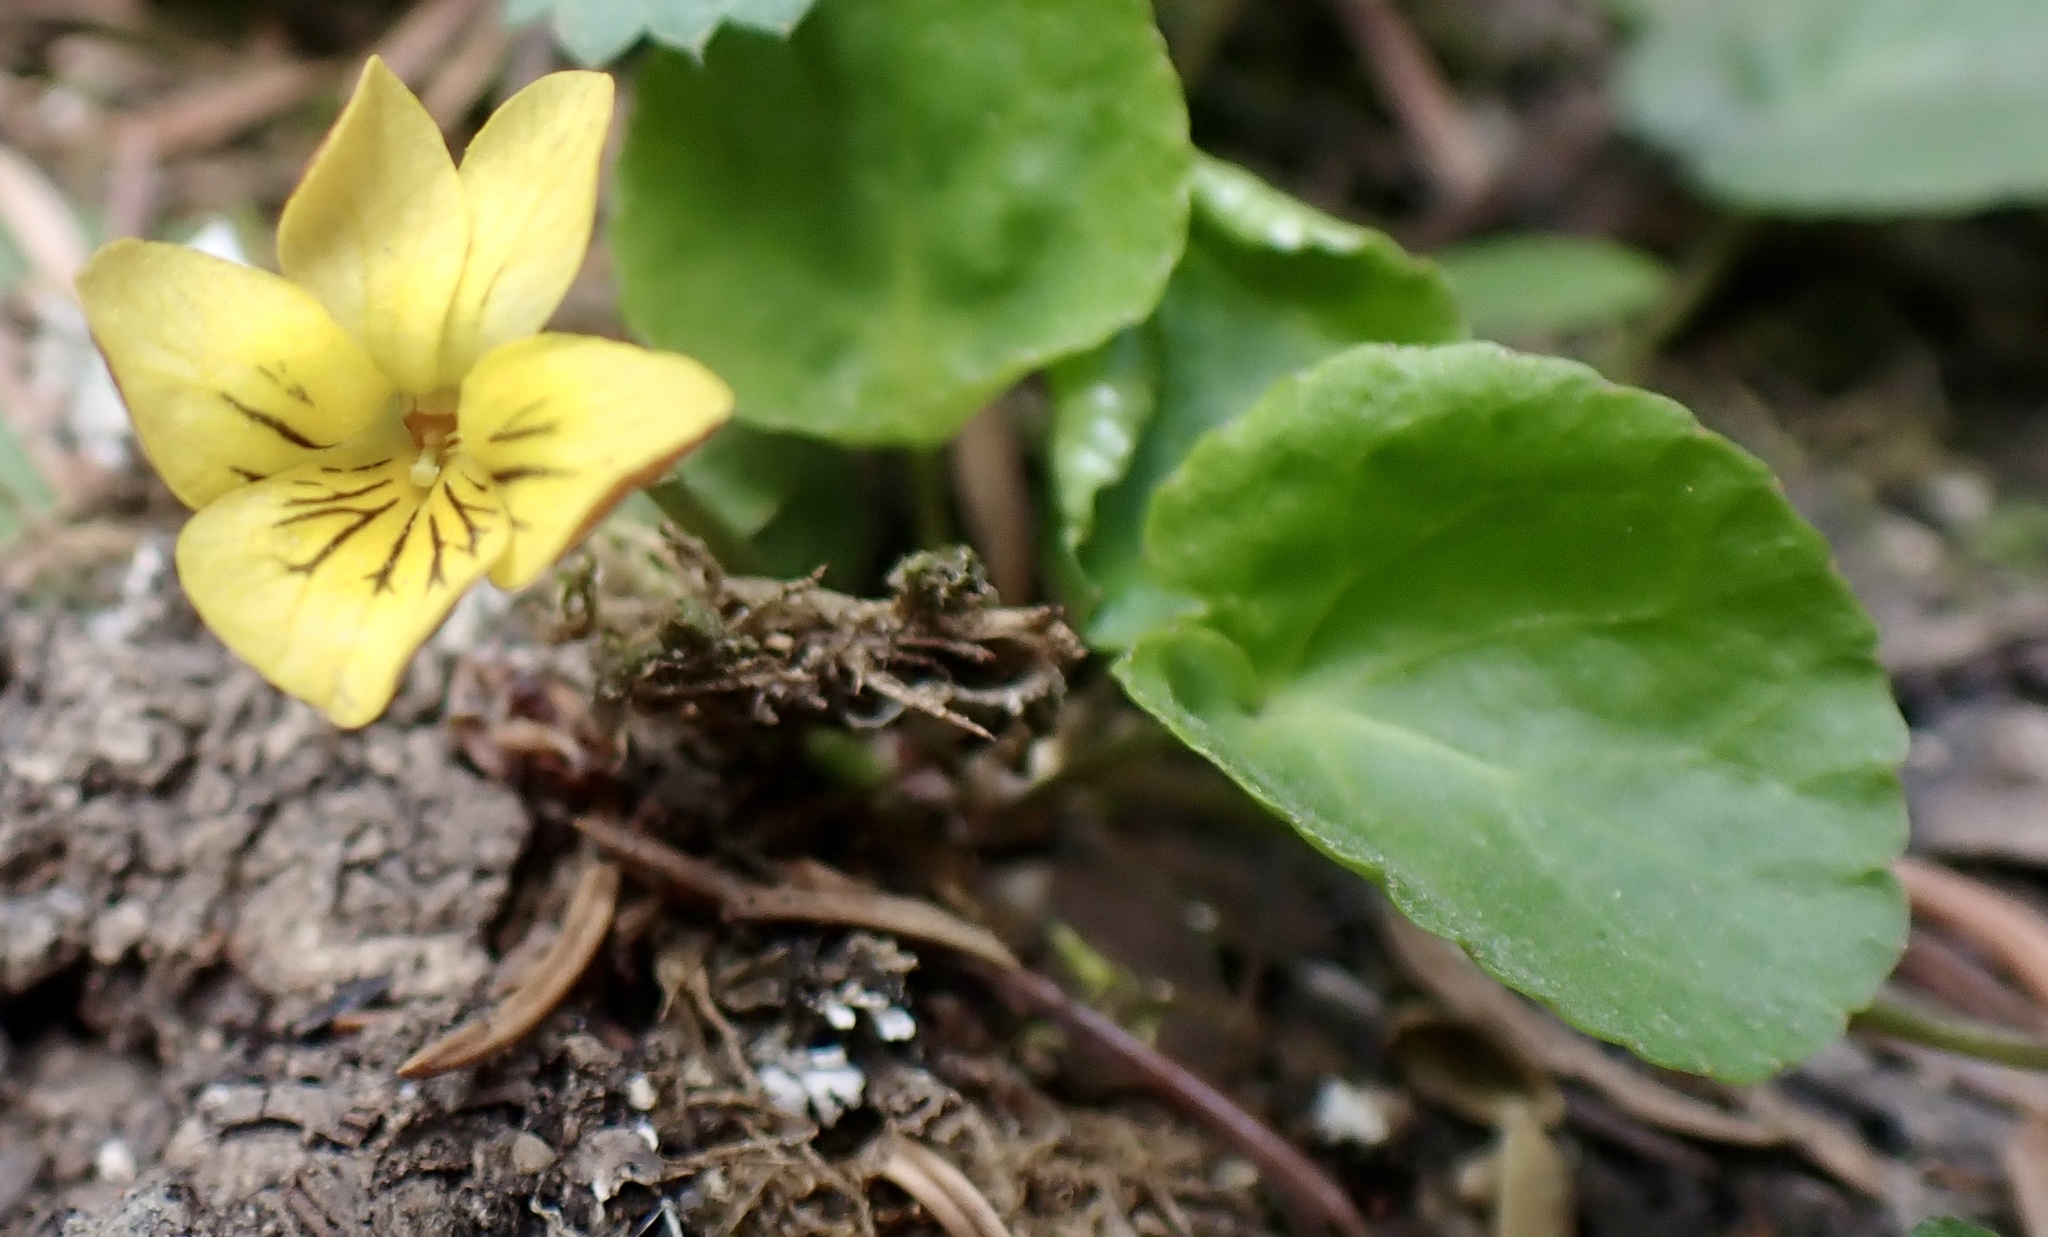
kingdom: Plantae
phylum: Tracheophyta
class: Magnoliopsida
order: Malpighiales
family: Violaceae
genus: Viola
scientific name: Viola orbiculata
